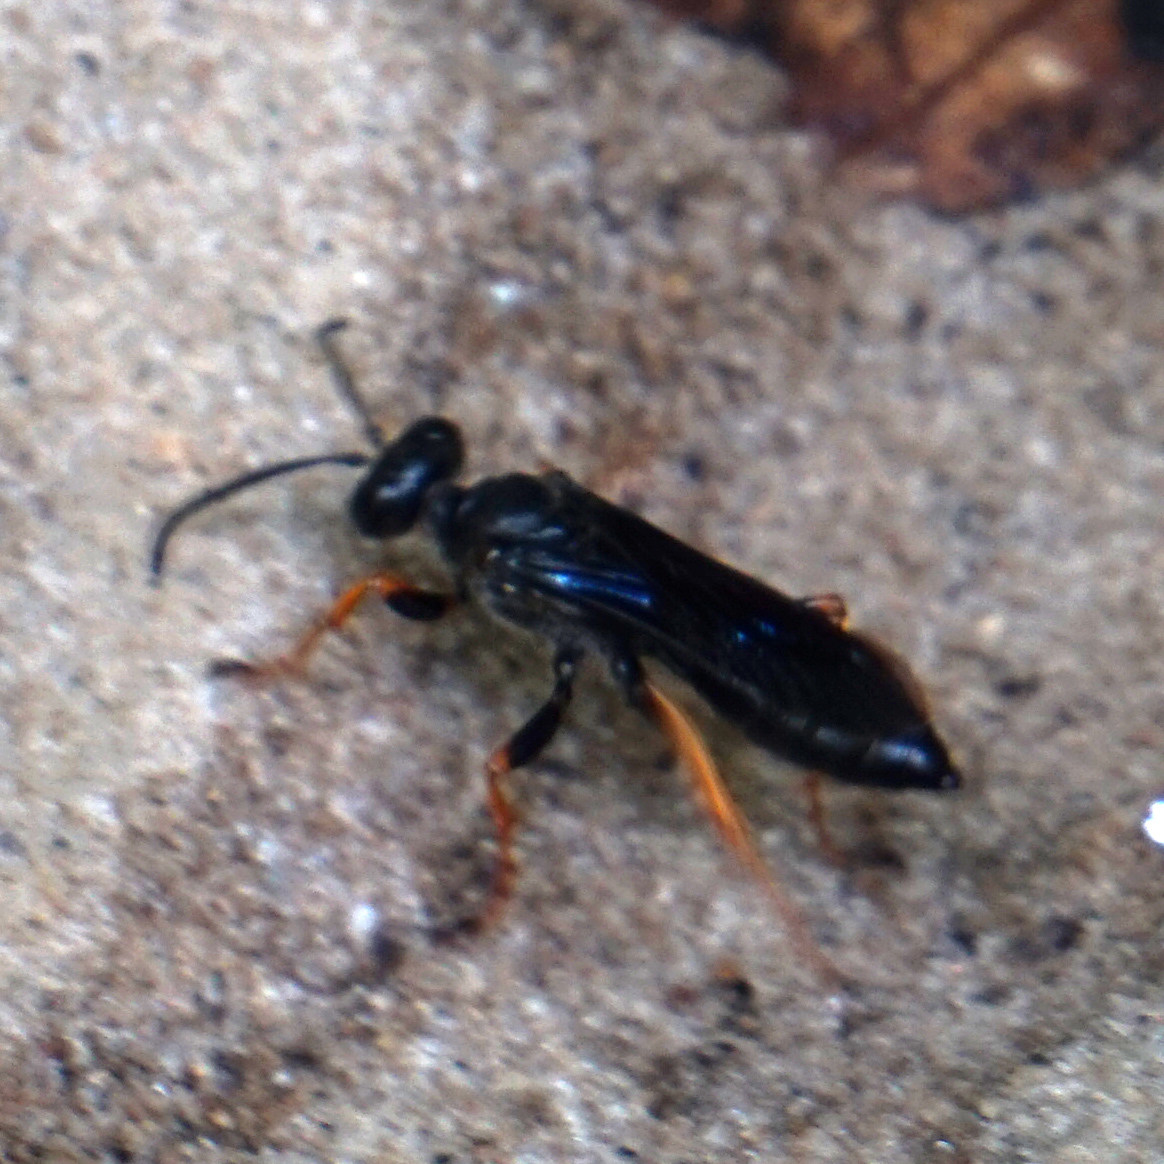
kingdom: Animalia
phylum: Arthropoda
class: Insecta
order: Hymenoptera
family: Sphecidae
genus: Sphex
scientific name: Sphex nudus
